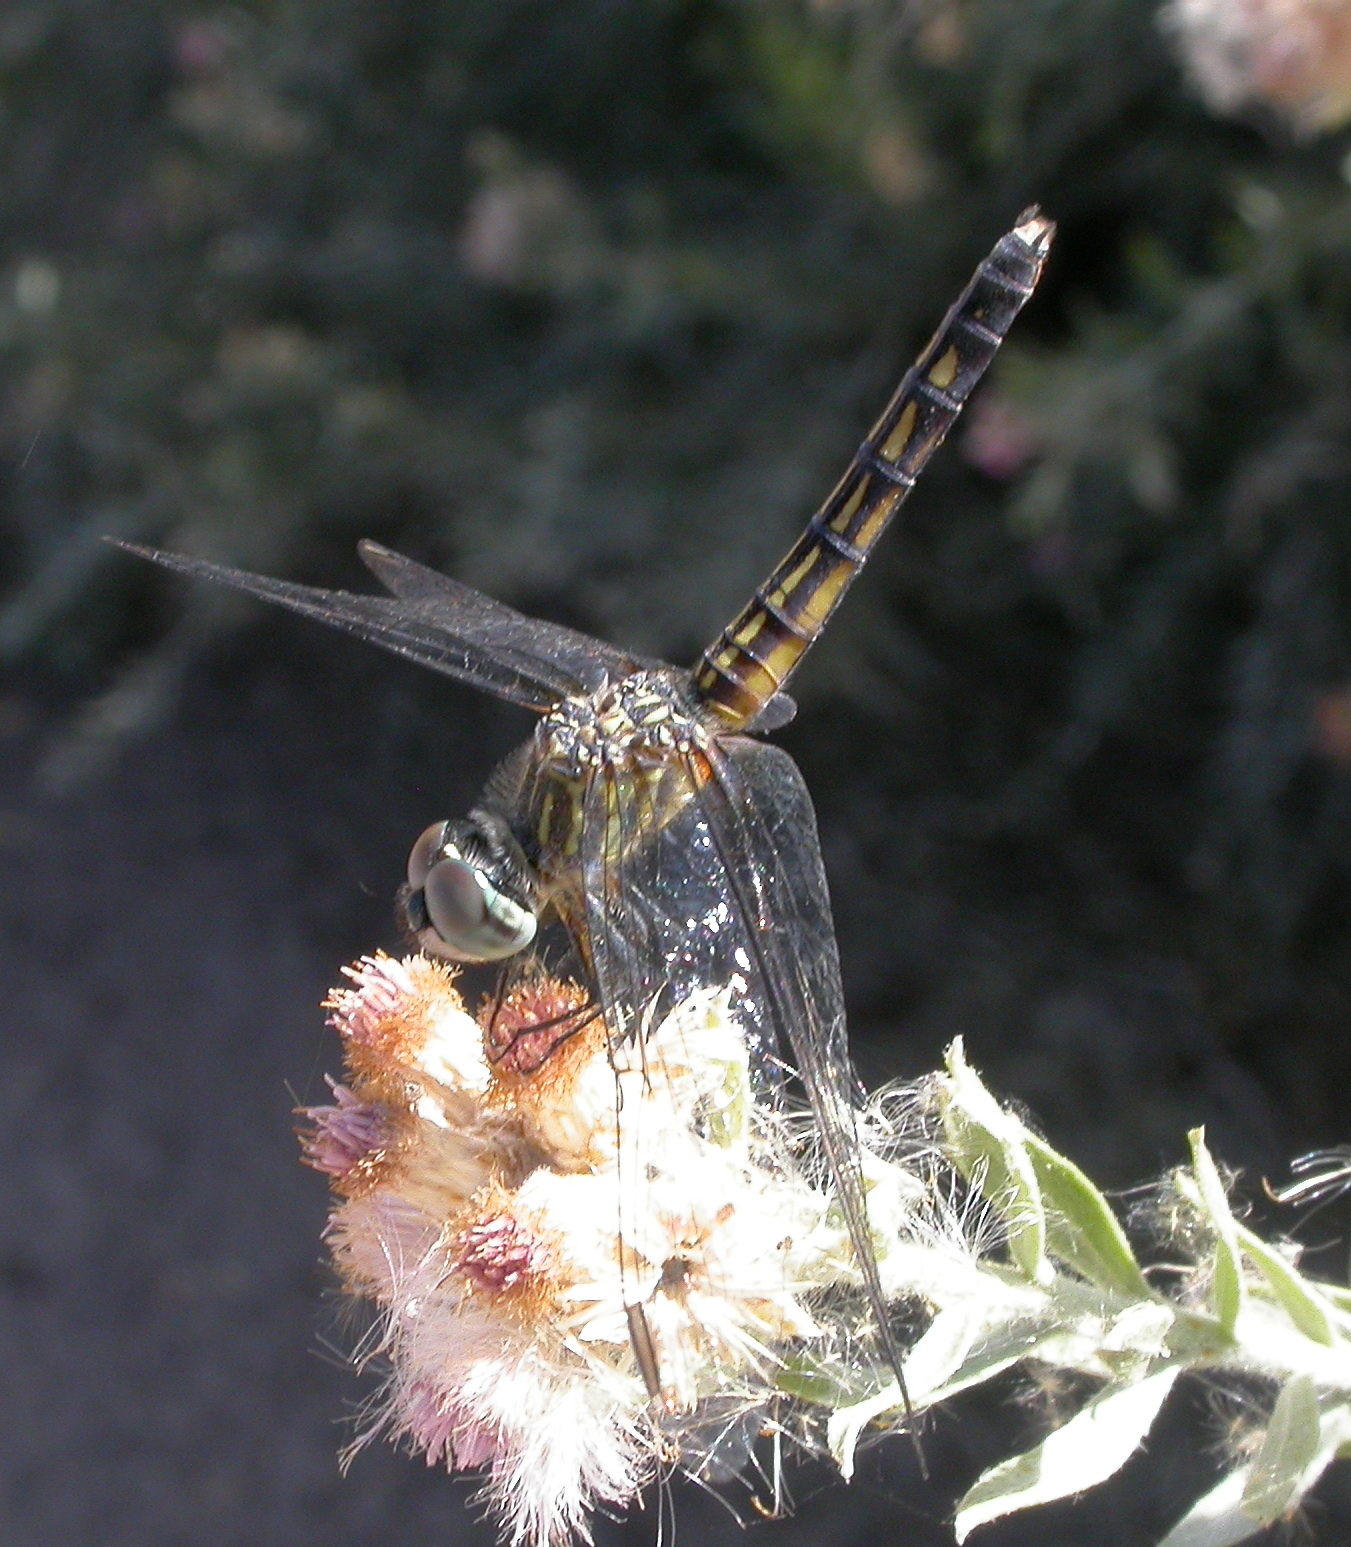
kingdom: Animalia
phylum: Arthropoda
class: Insecta
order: Odonata
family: Libellulidae
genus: Pachydiplax
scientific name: Pachydiplax longipennis
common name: Blue dasher
